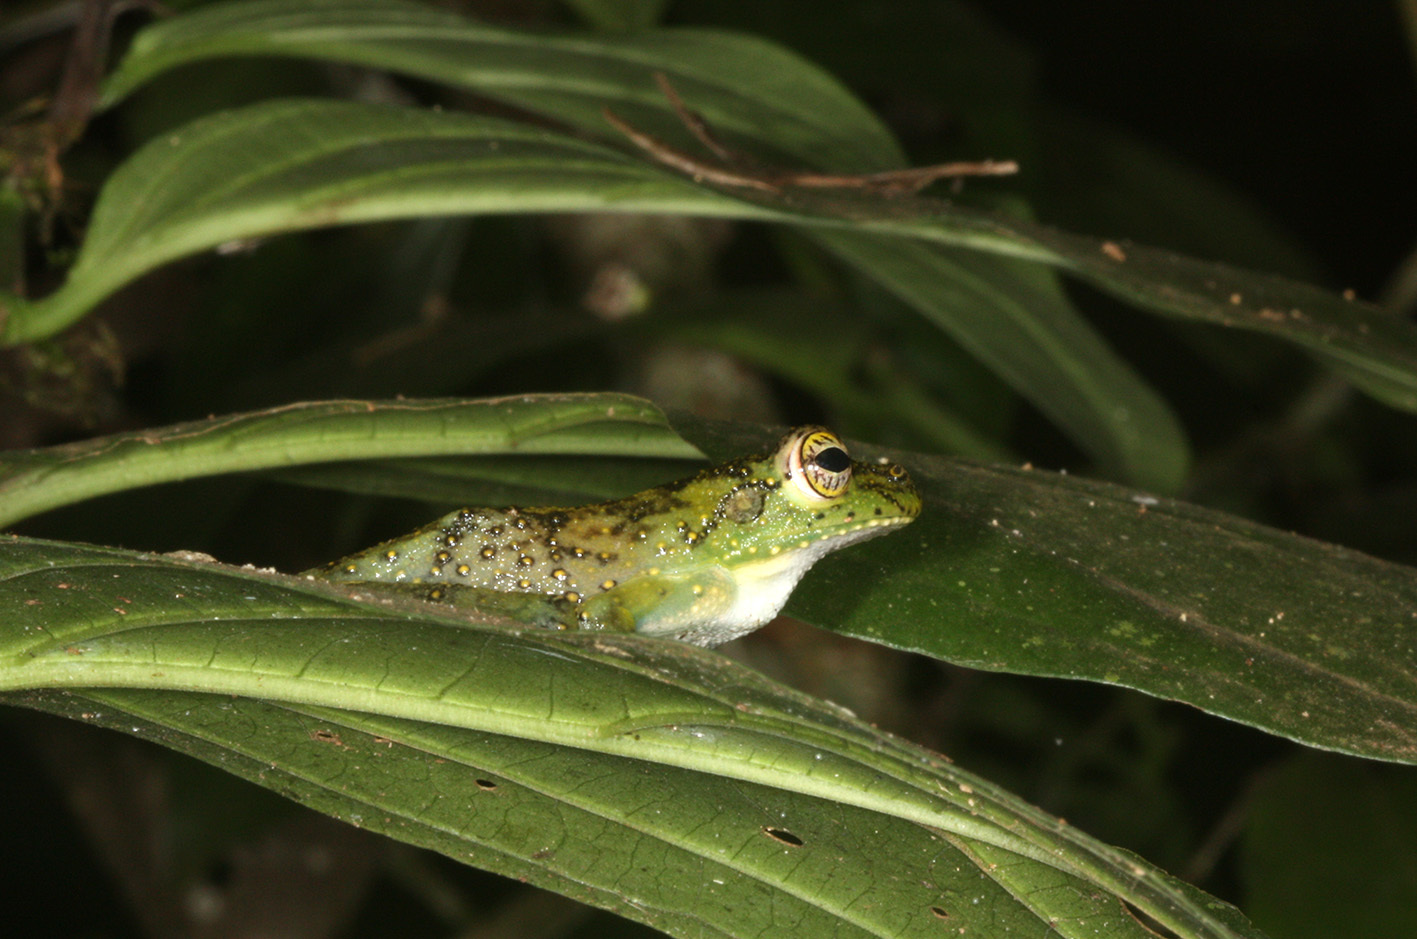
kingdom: Animalia
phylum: Chordata
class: Amphibia
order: Anura
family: Hylidae
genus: Itapotihyla
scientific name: Itapotihyla langsdorffii
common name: Ocellated treefrog
